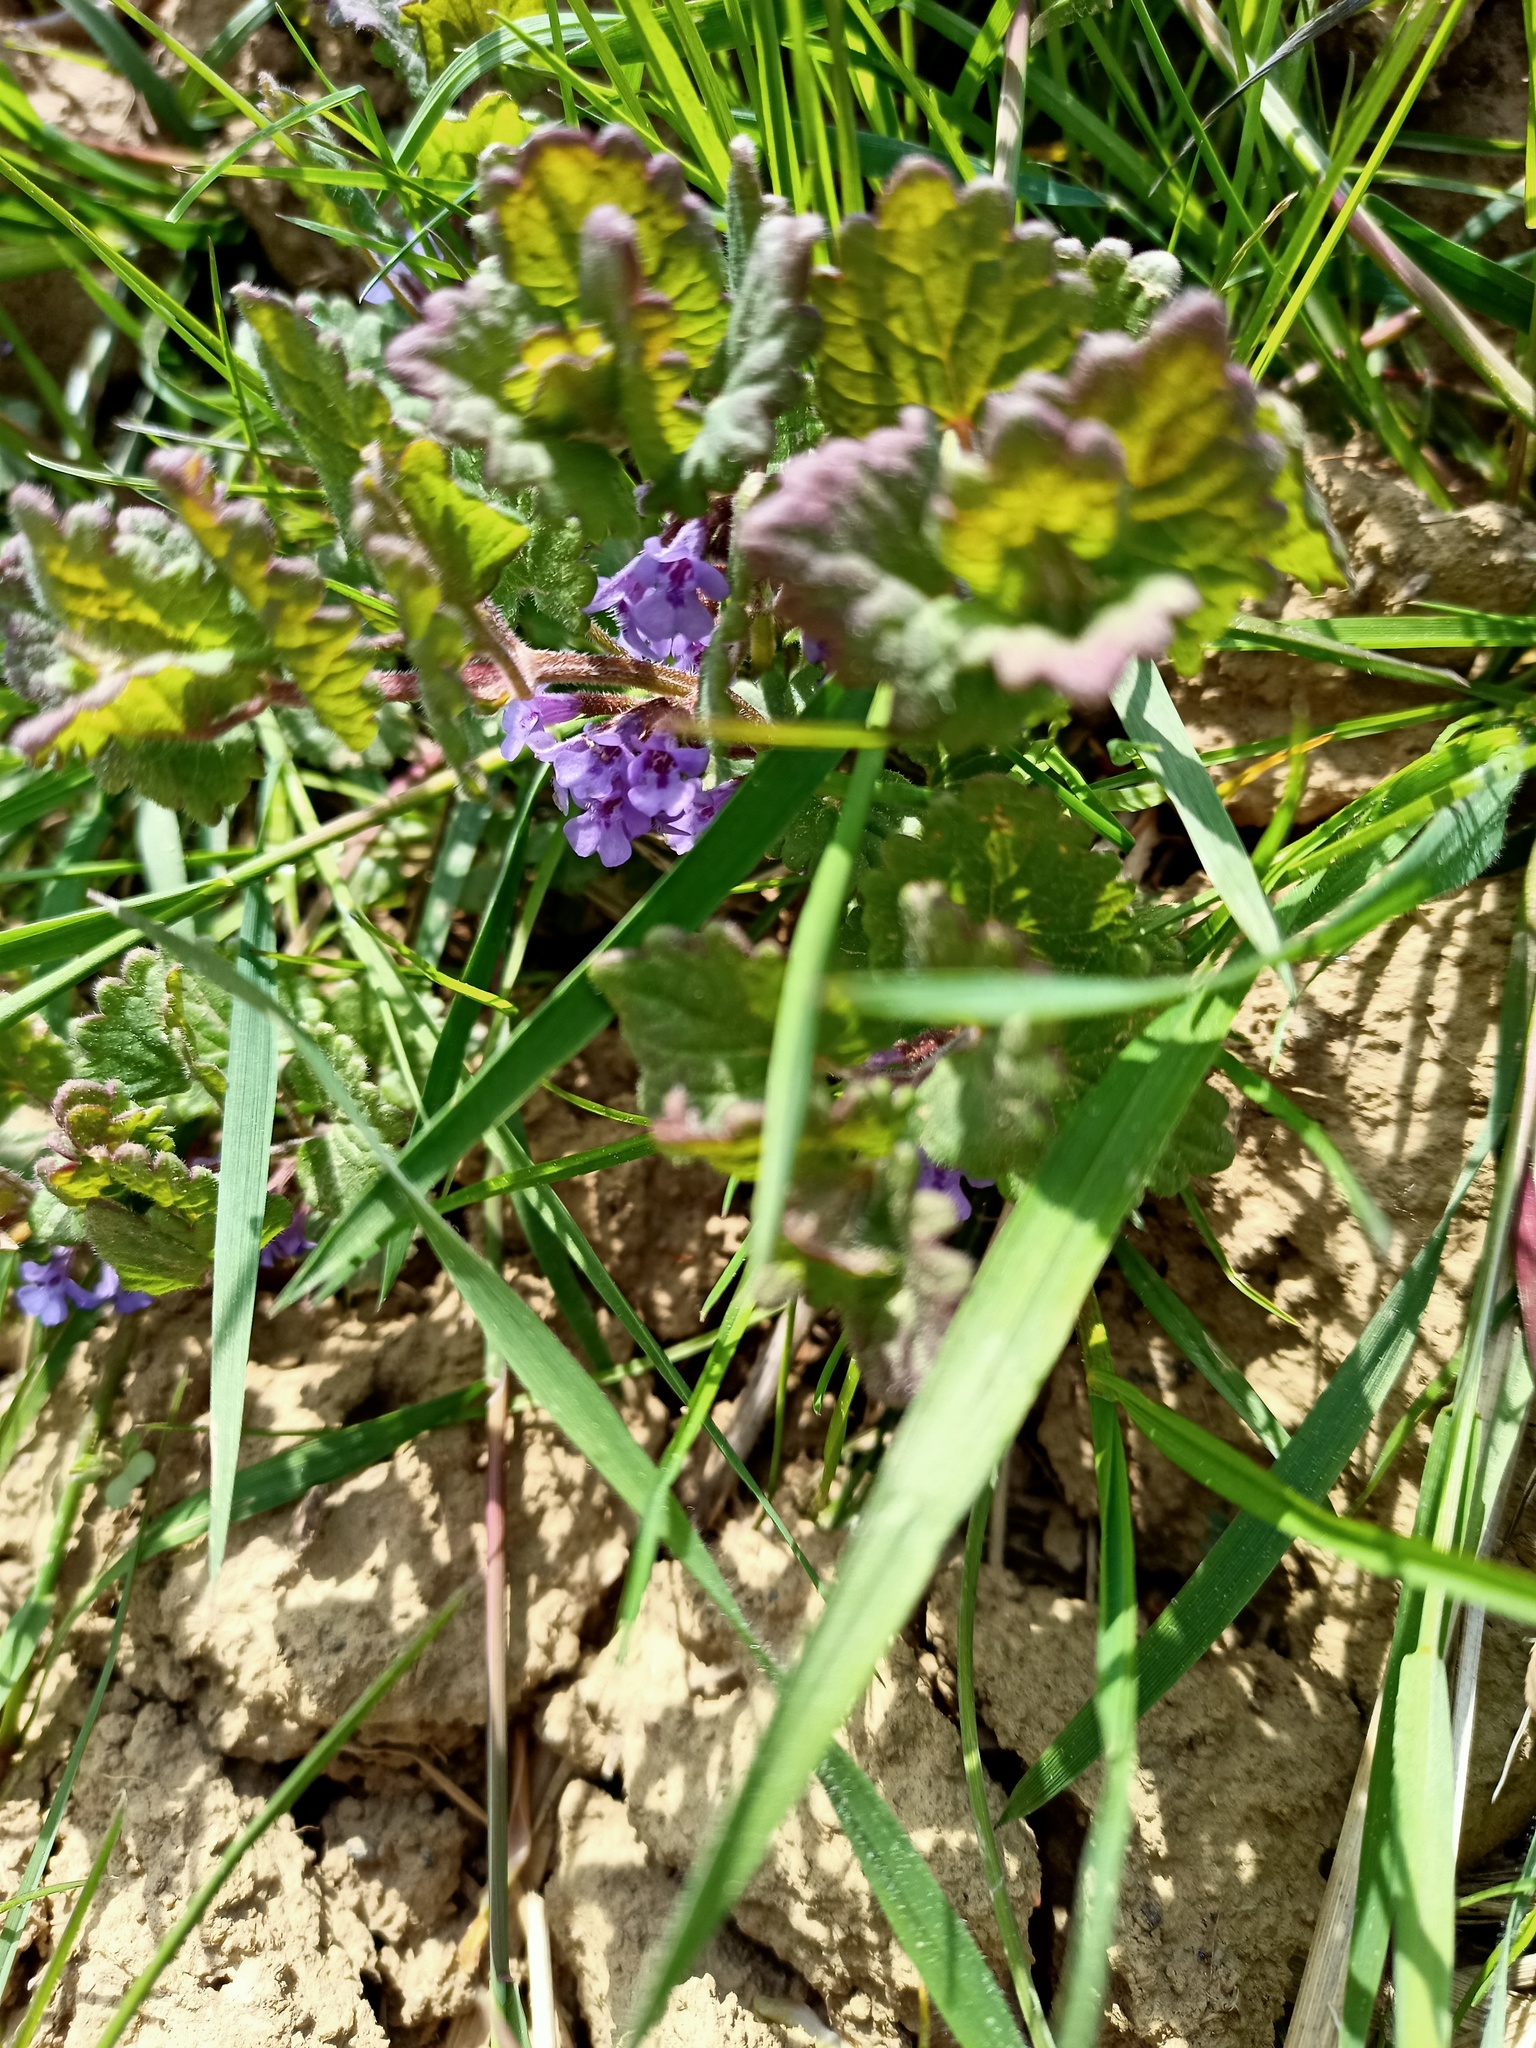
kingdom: Plantae
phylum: Tracheophyta
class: Magnoliopsida
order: Lamiales
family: Lamiaceae
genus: Glechoma
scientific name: Glechoma hederacea
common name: Ground ivy
